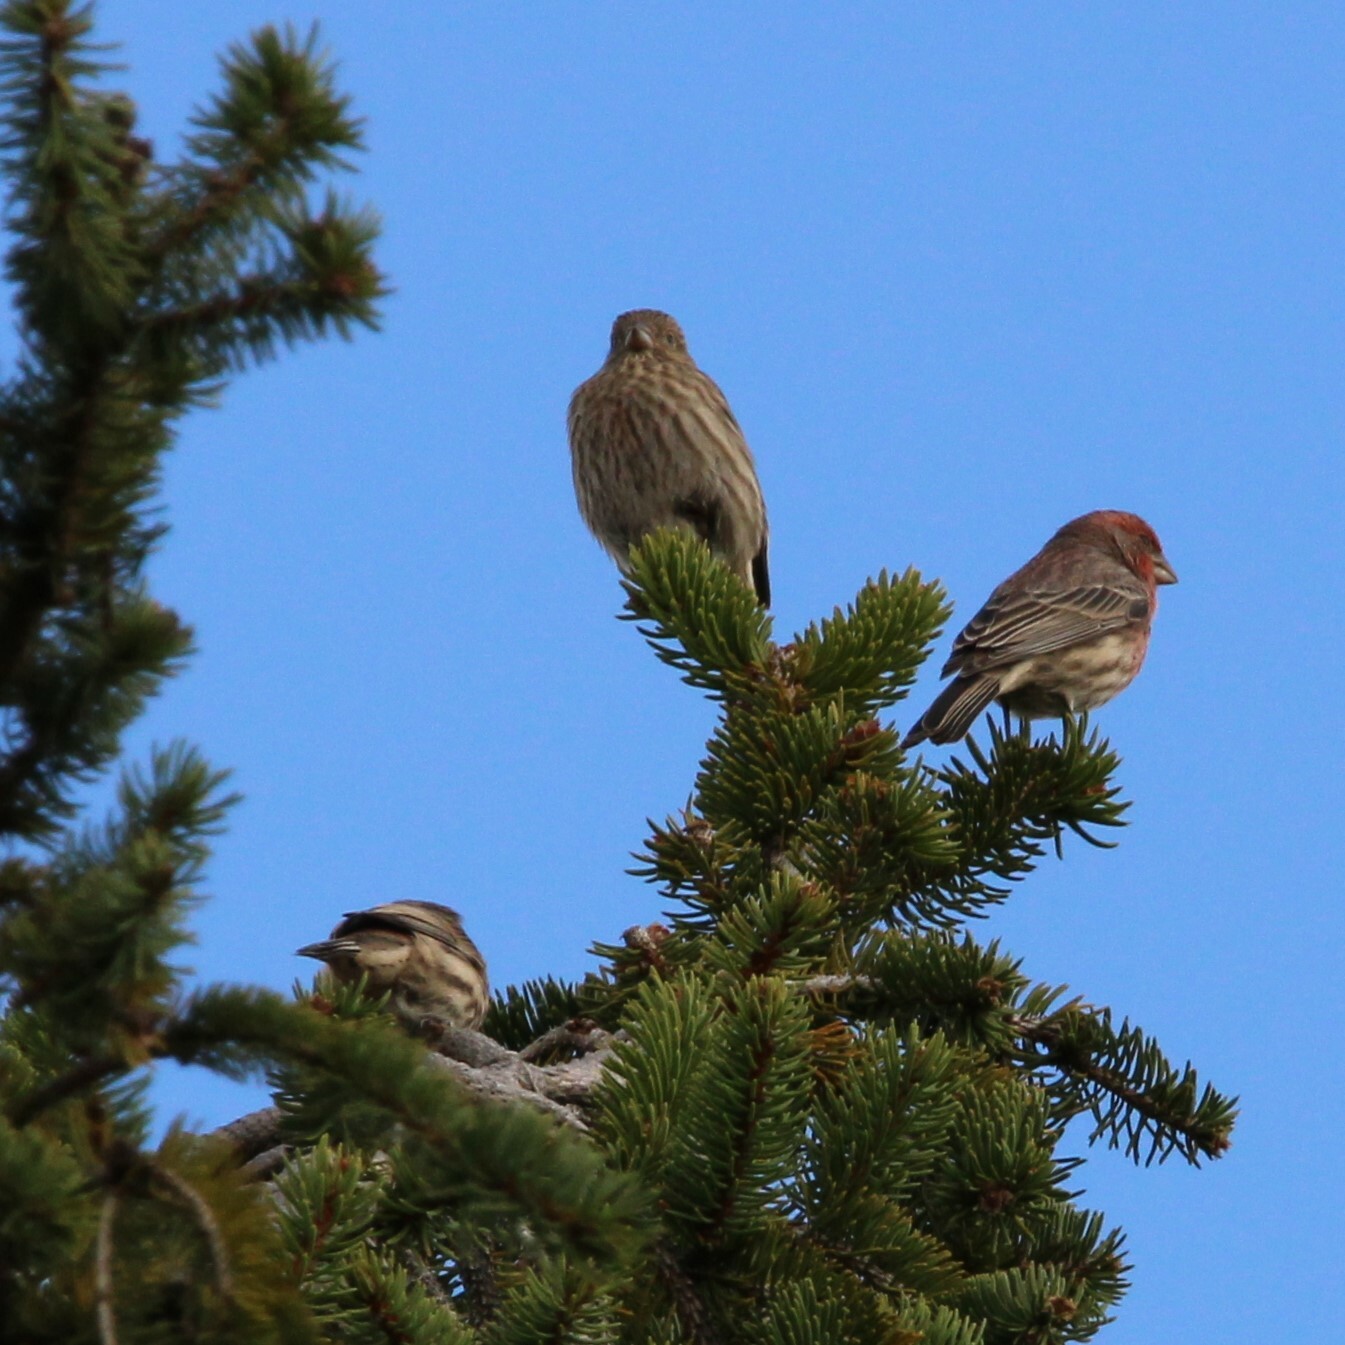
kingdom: Animalia
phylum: Chordata
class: Aves
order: Passeriformes
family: Fringillidae
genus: Haemorhous
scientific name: Haemorhous mexicanus
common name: House finch
